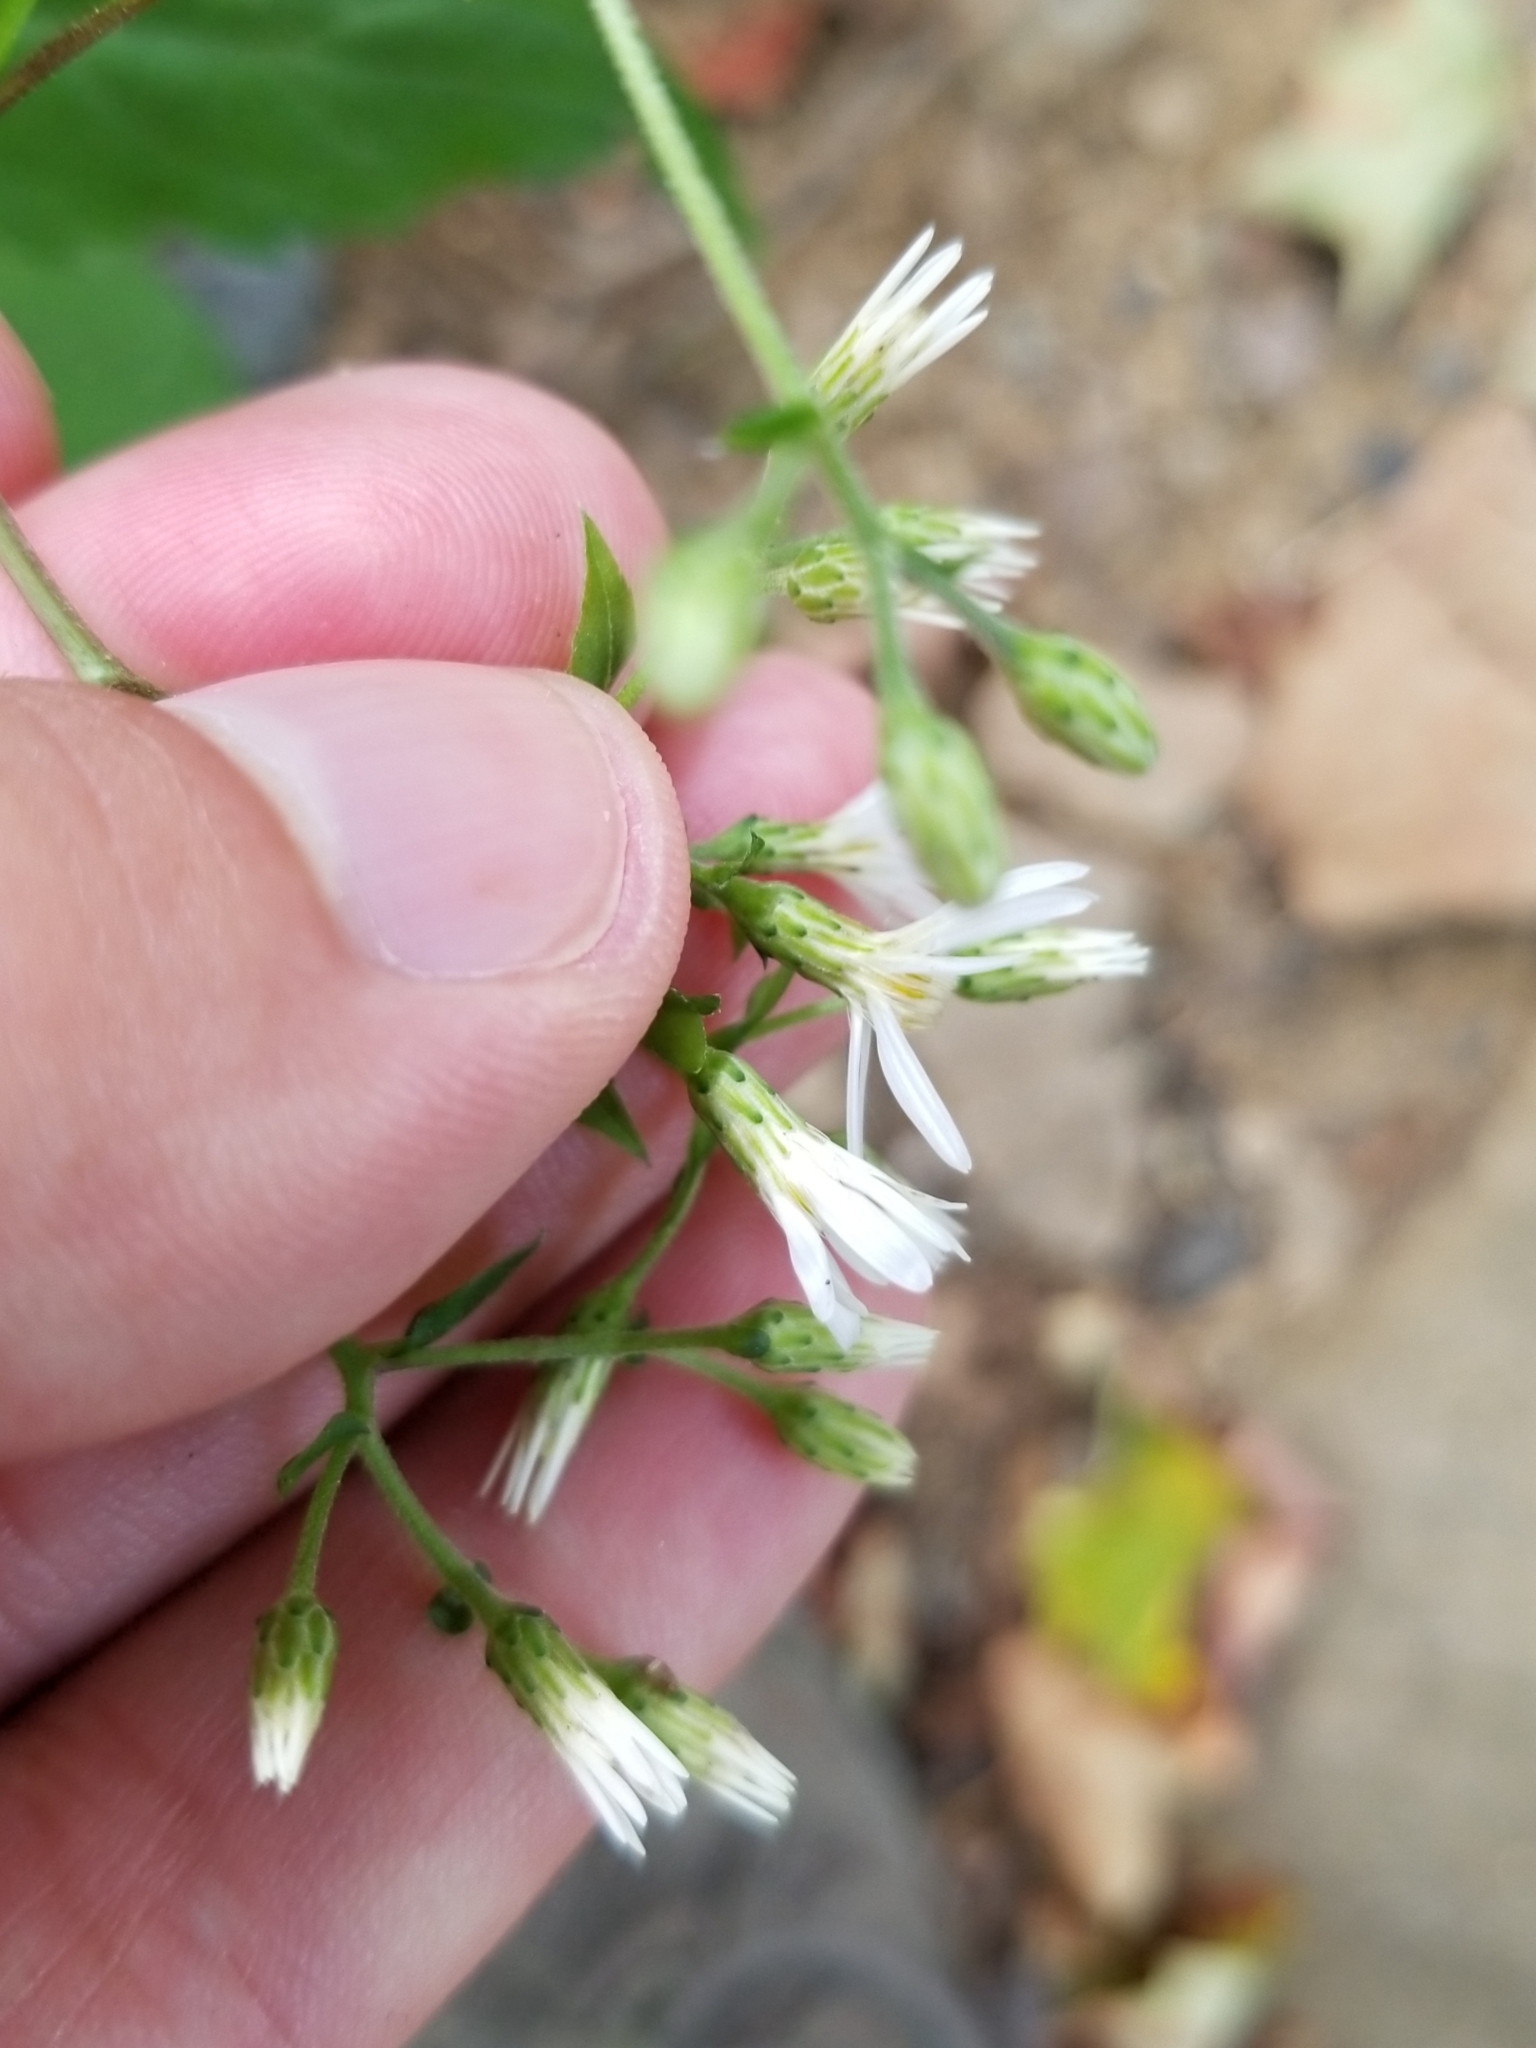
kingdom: Plantae
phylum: Tracheophyta
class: Magnoliopsida
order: Asterales
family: Asteraceae
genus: Eurybia
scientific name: Eurybia divaricata
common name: White wood aster
